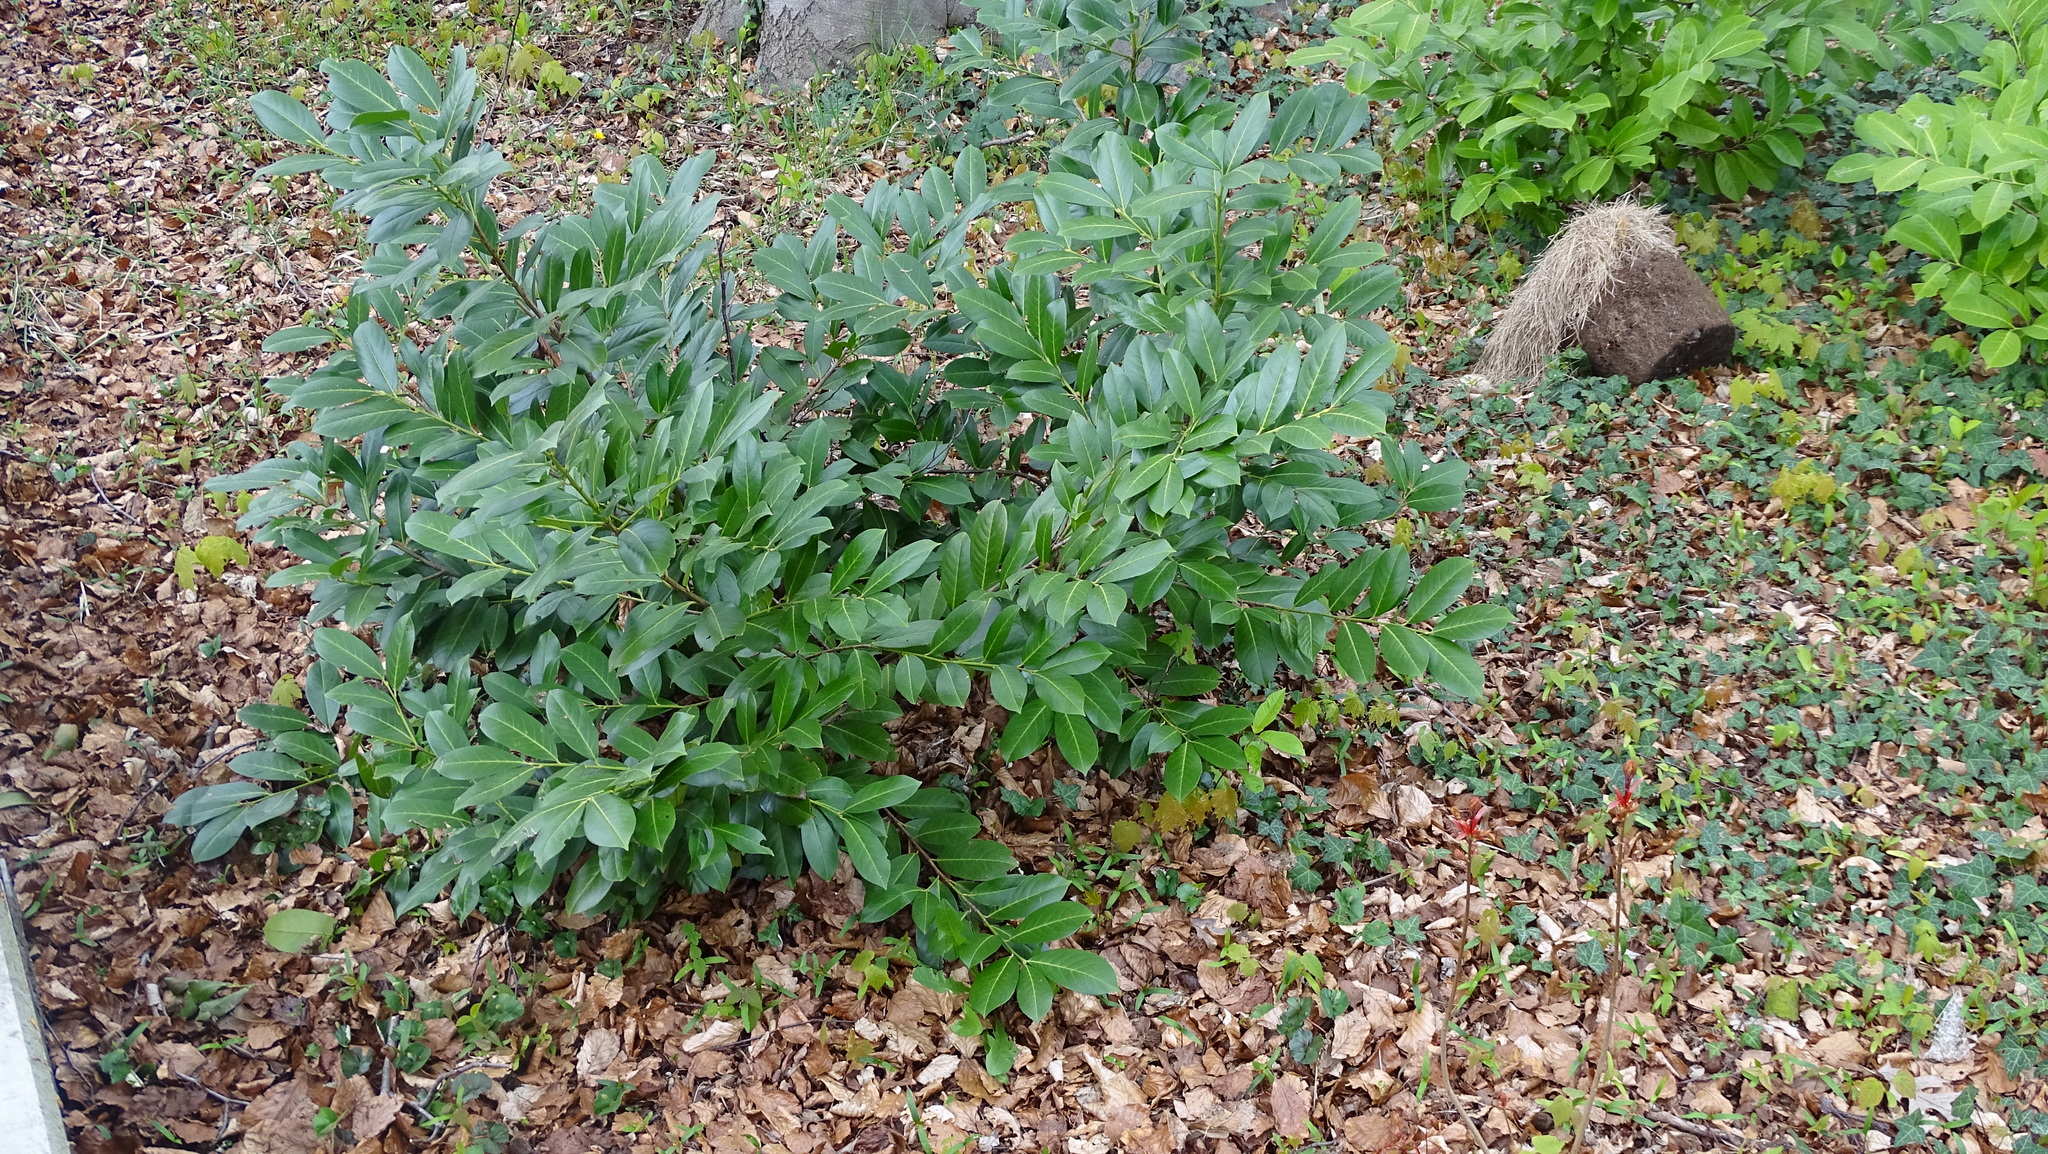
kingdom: Plantae
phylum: Tracheophyta
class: Magnoliopsida
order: Rosales
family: Rosaceae
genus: Prunus
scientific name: Prunus laurocerasus
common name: Cherry laurel
